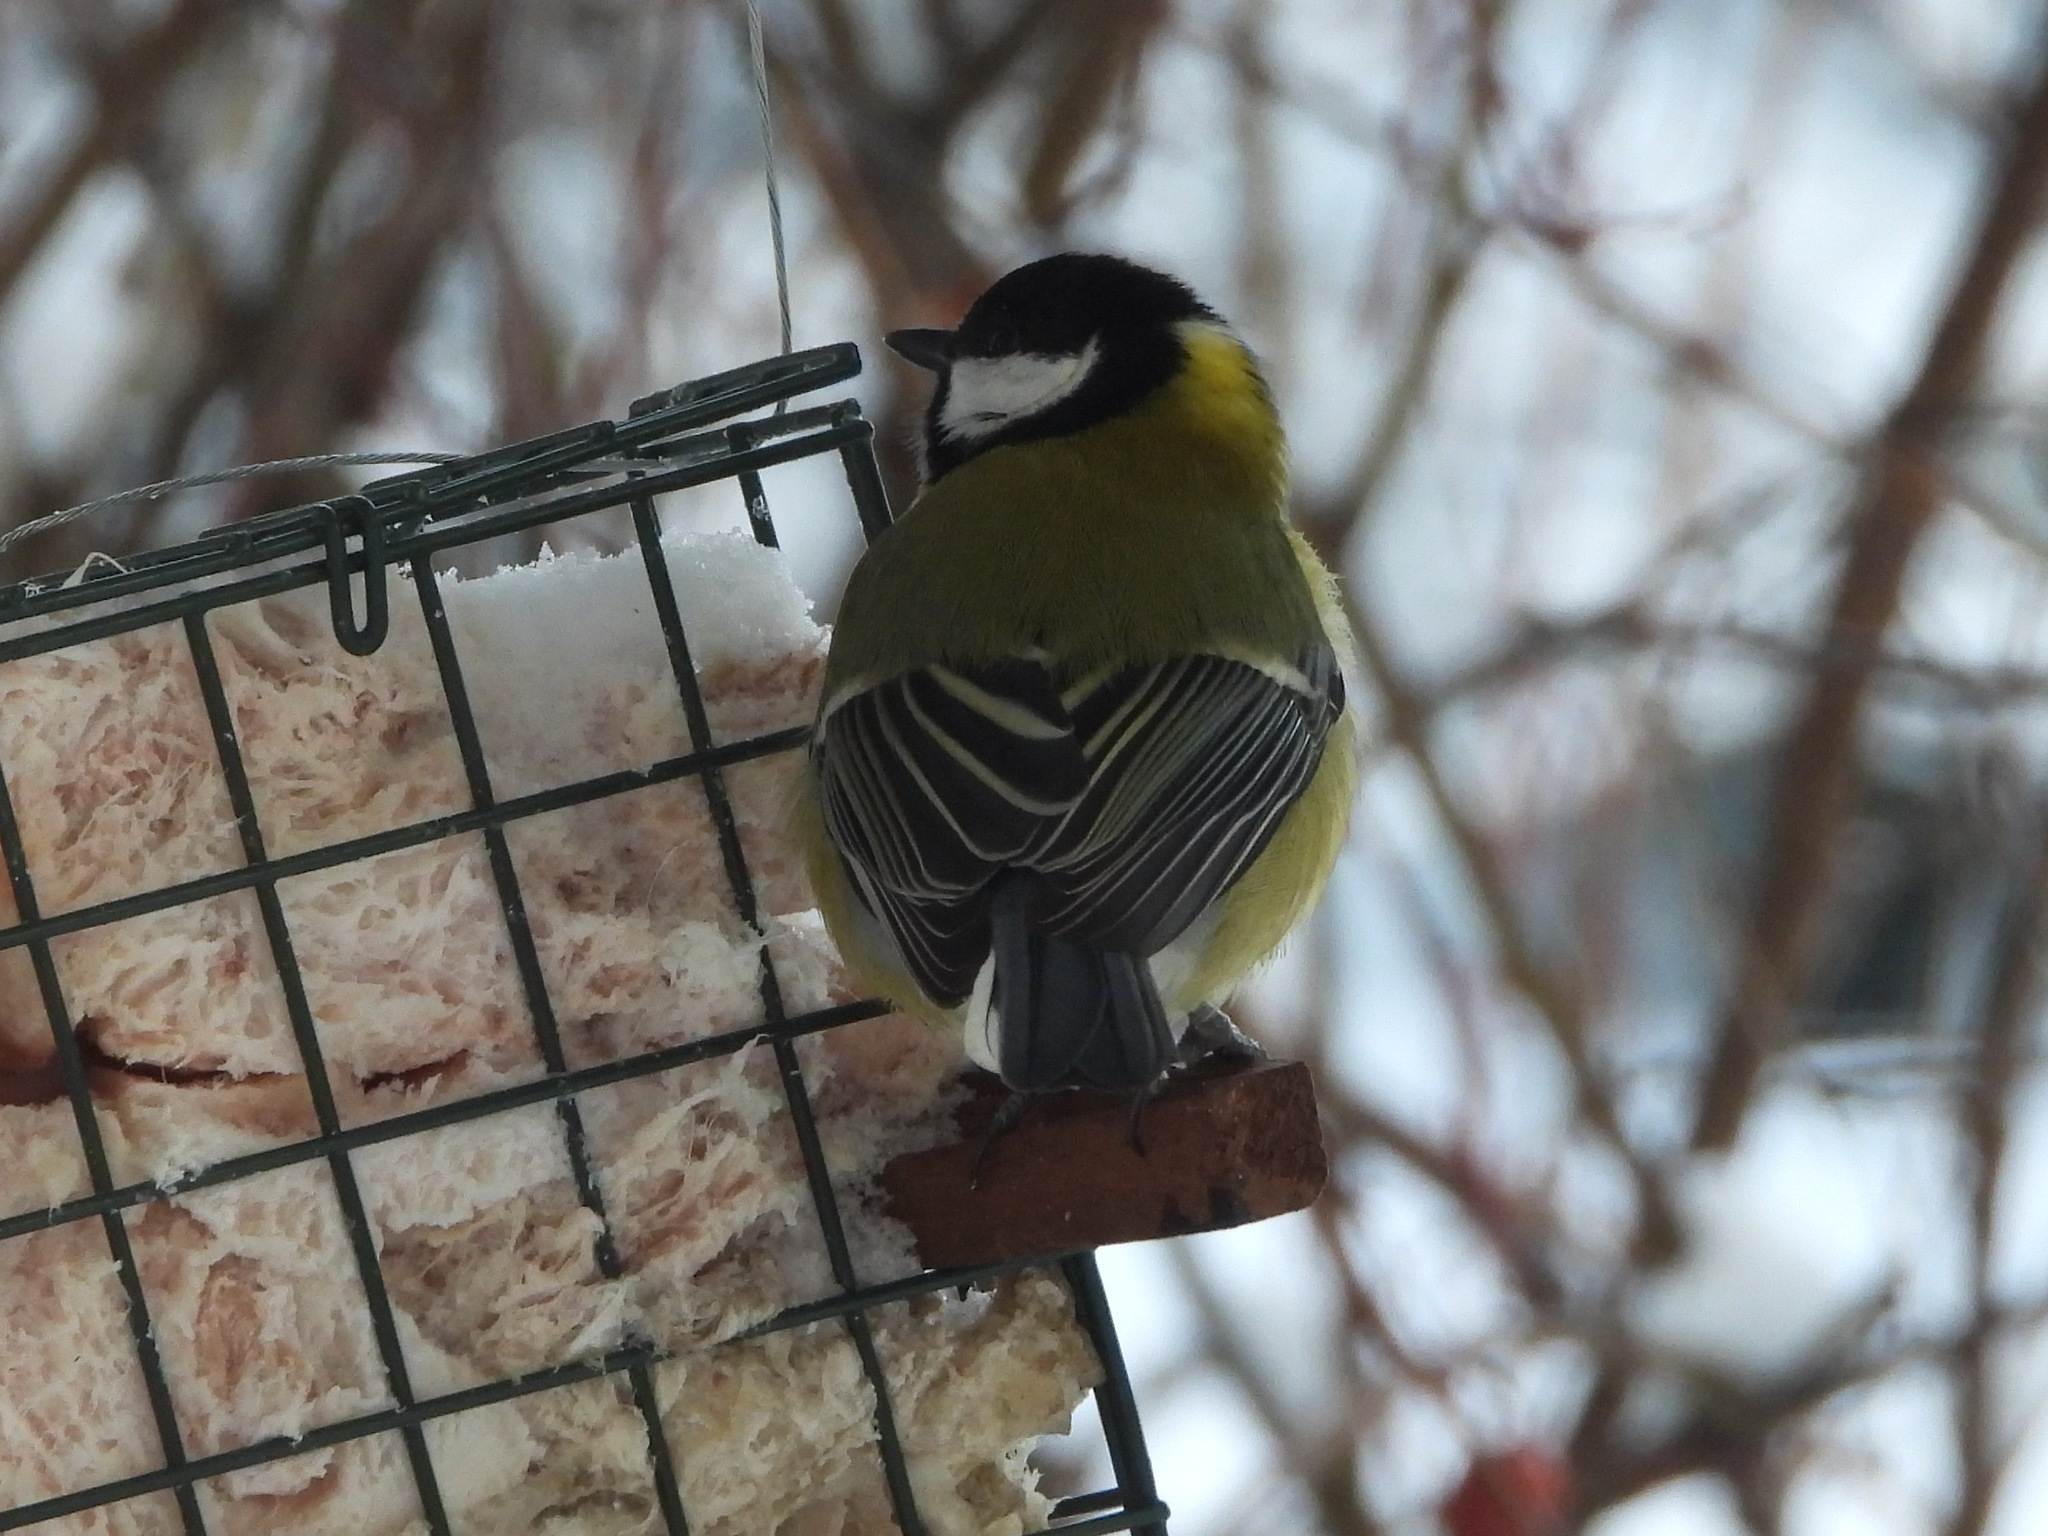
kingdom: Animalia
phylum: Chordata
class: Aves
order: Passeriformes
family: Paridae
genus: Parus
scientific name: Parus major
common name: Great tit
